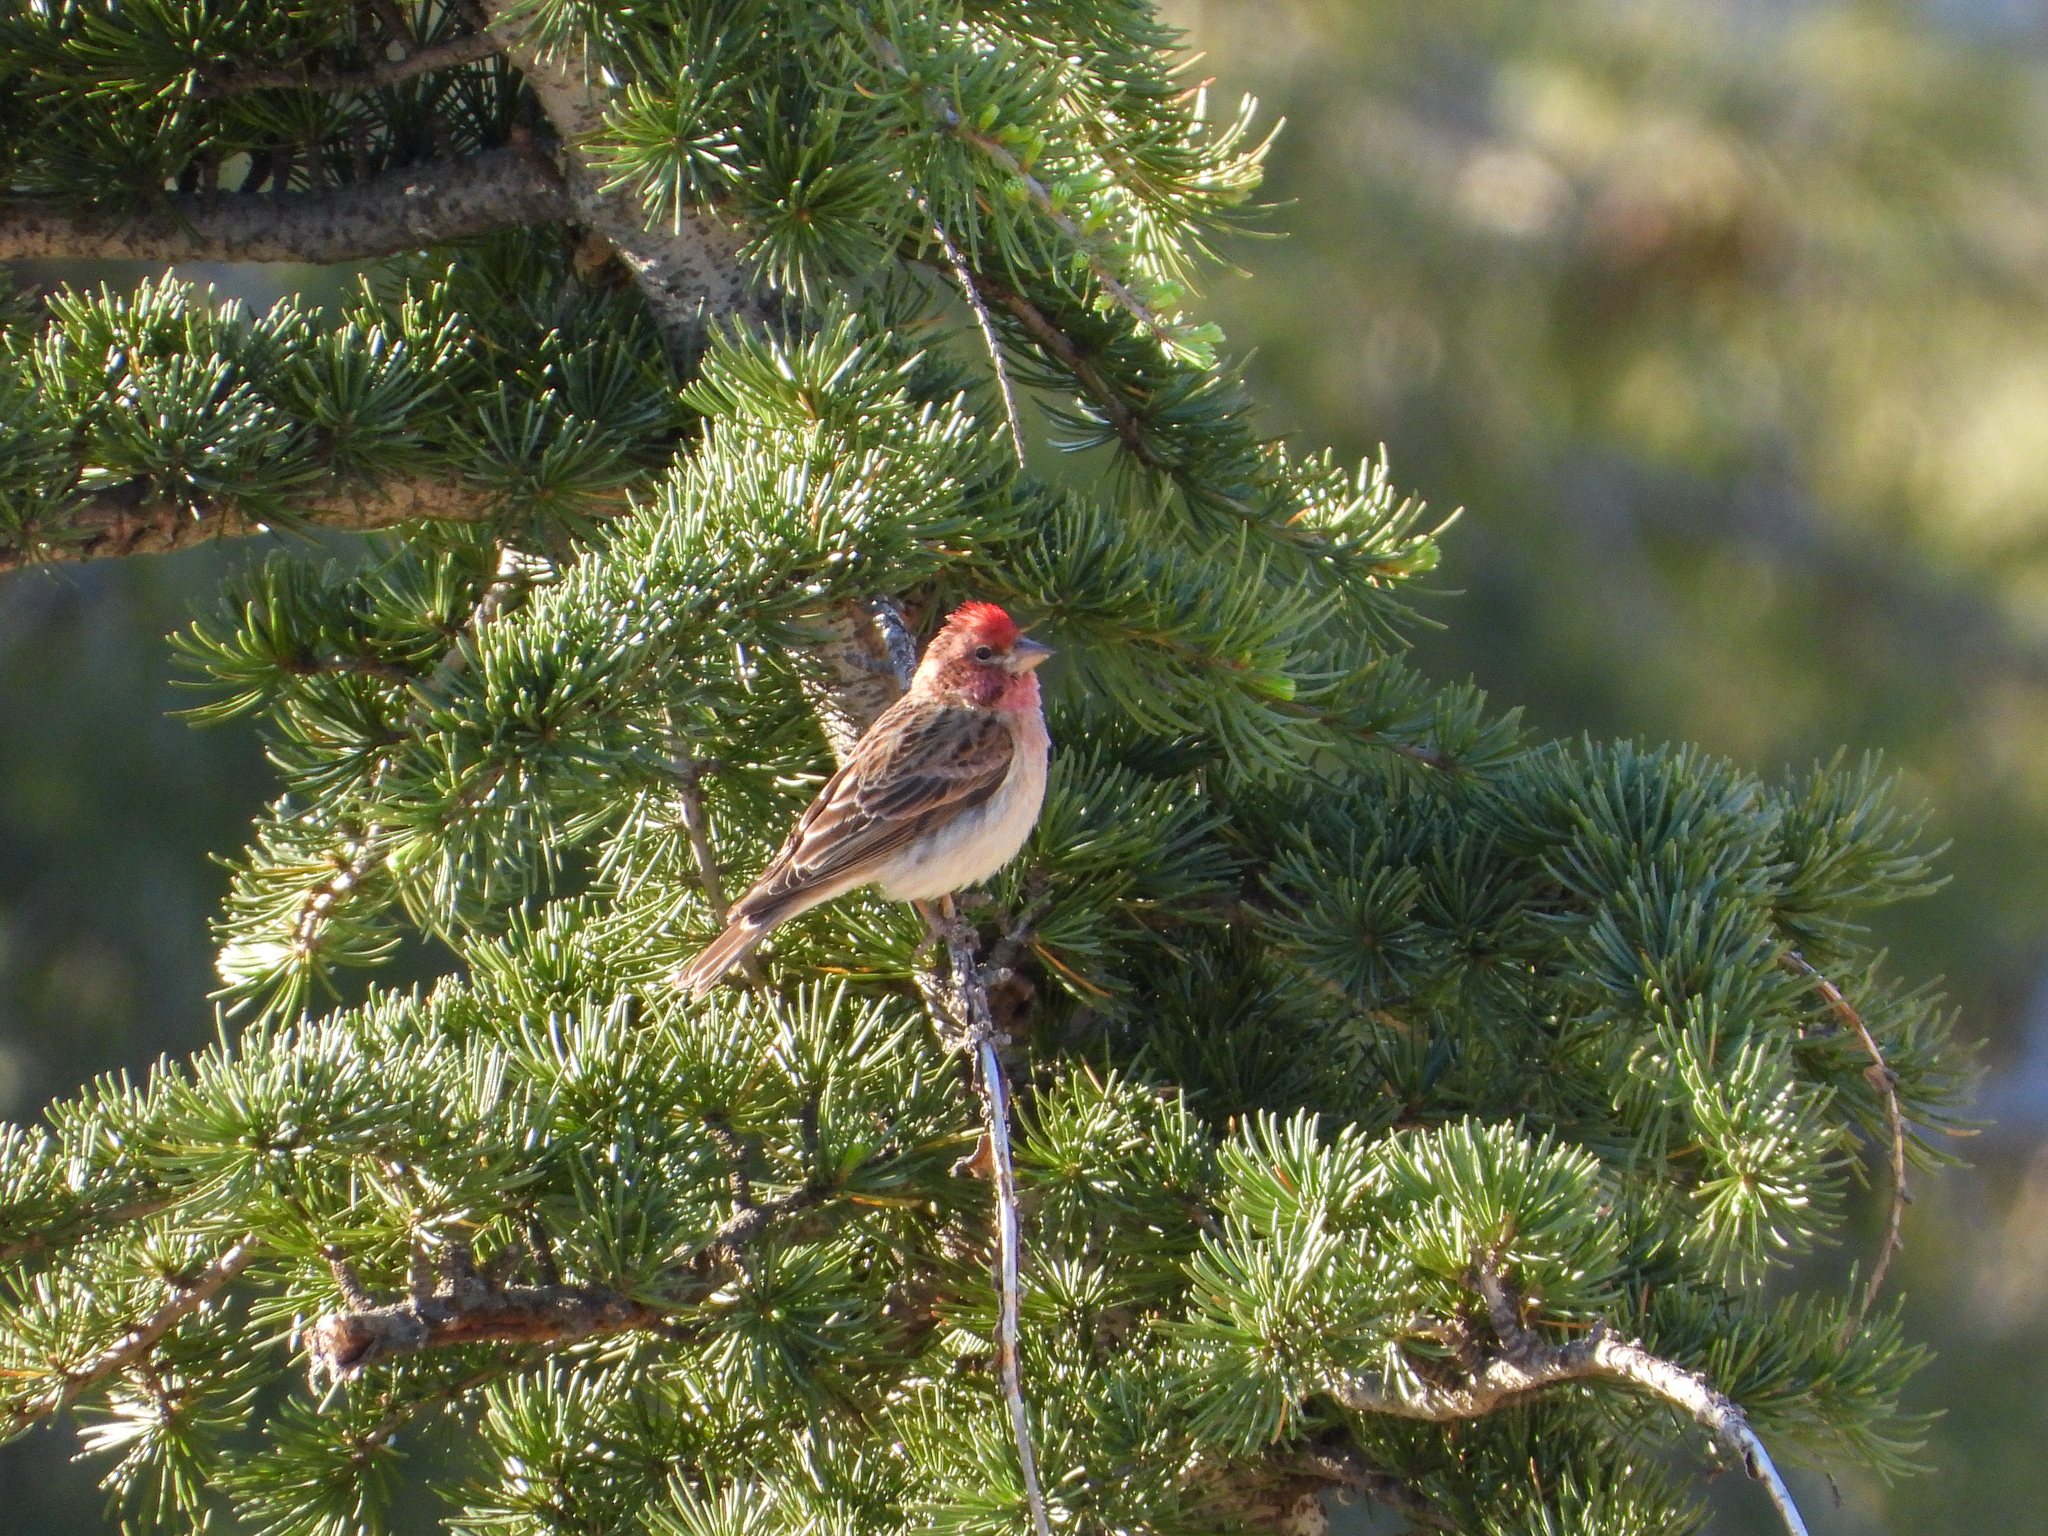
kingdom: Animalia
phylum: Chordata
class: Aves
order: Passeriformes
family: Fringillidae
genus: Haemorhous
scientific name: Haemorhous cassinii
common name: Cassin's finch
